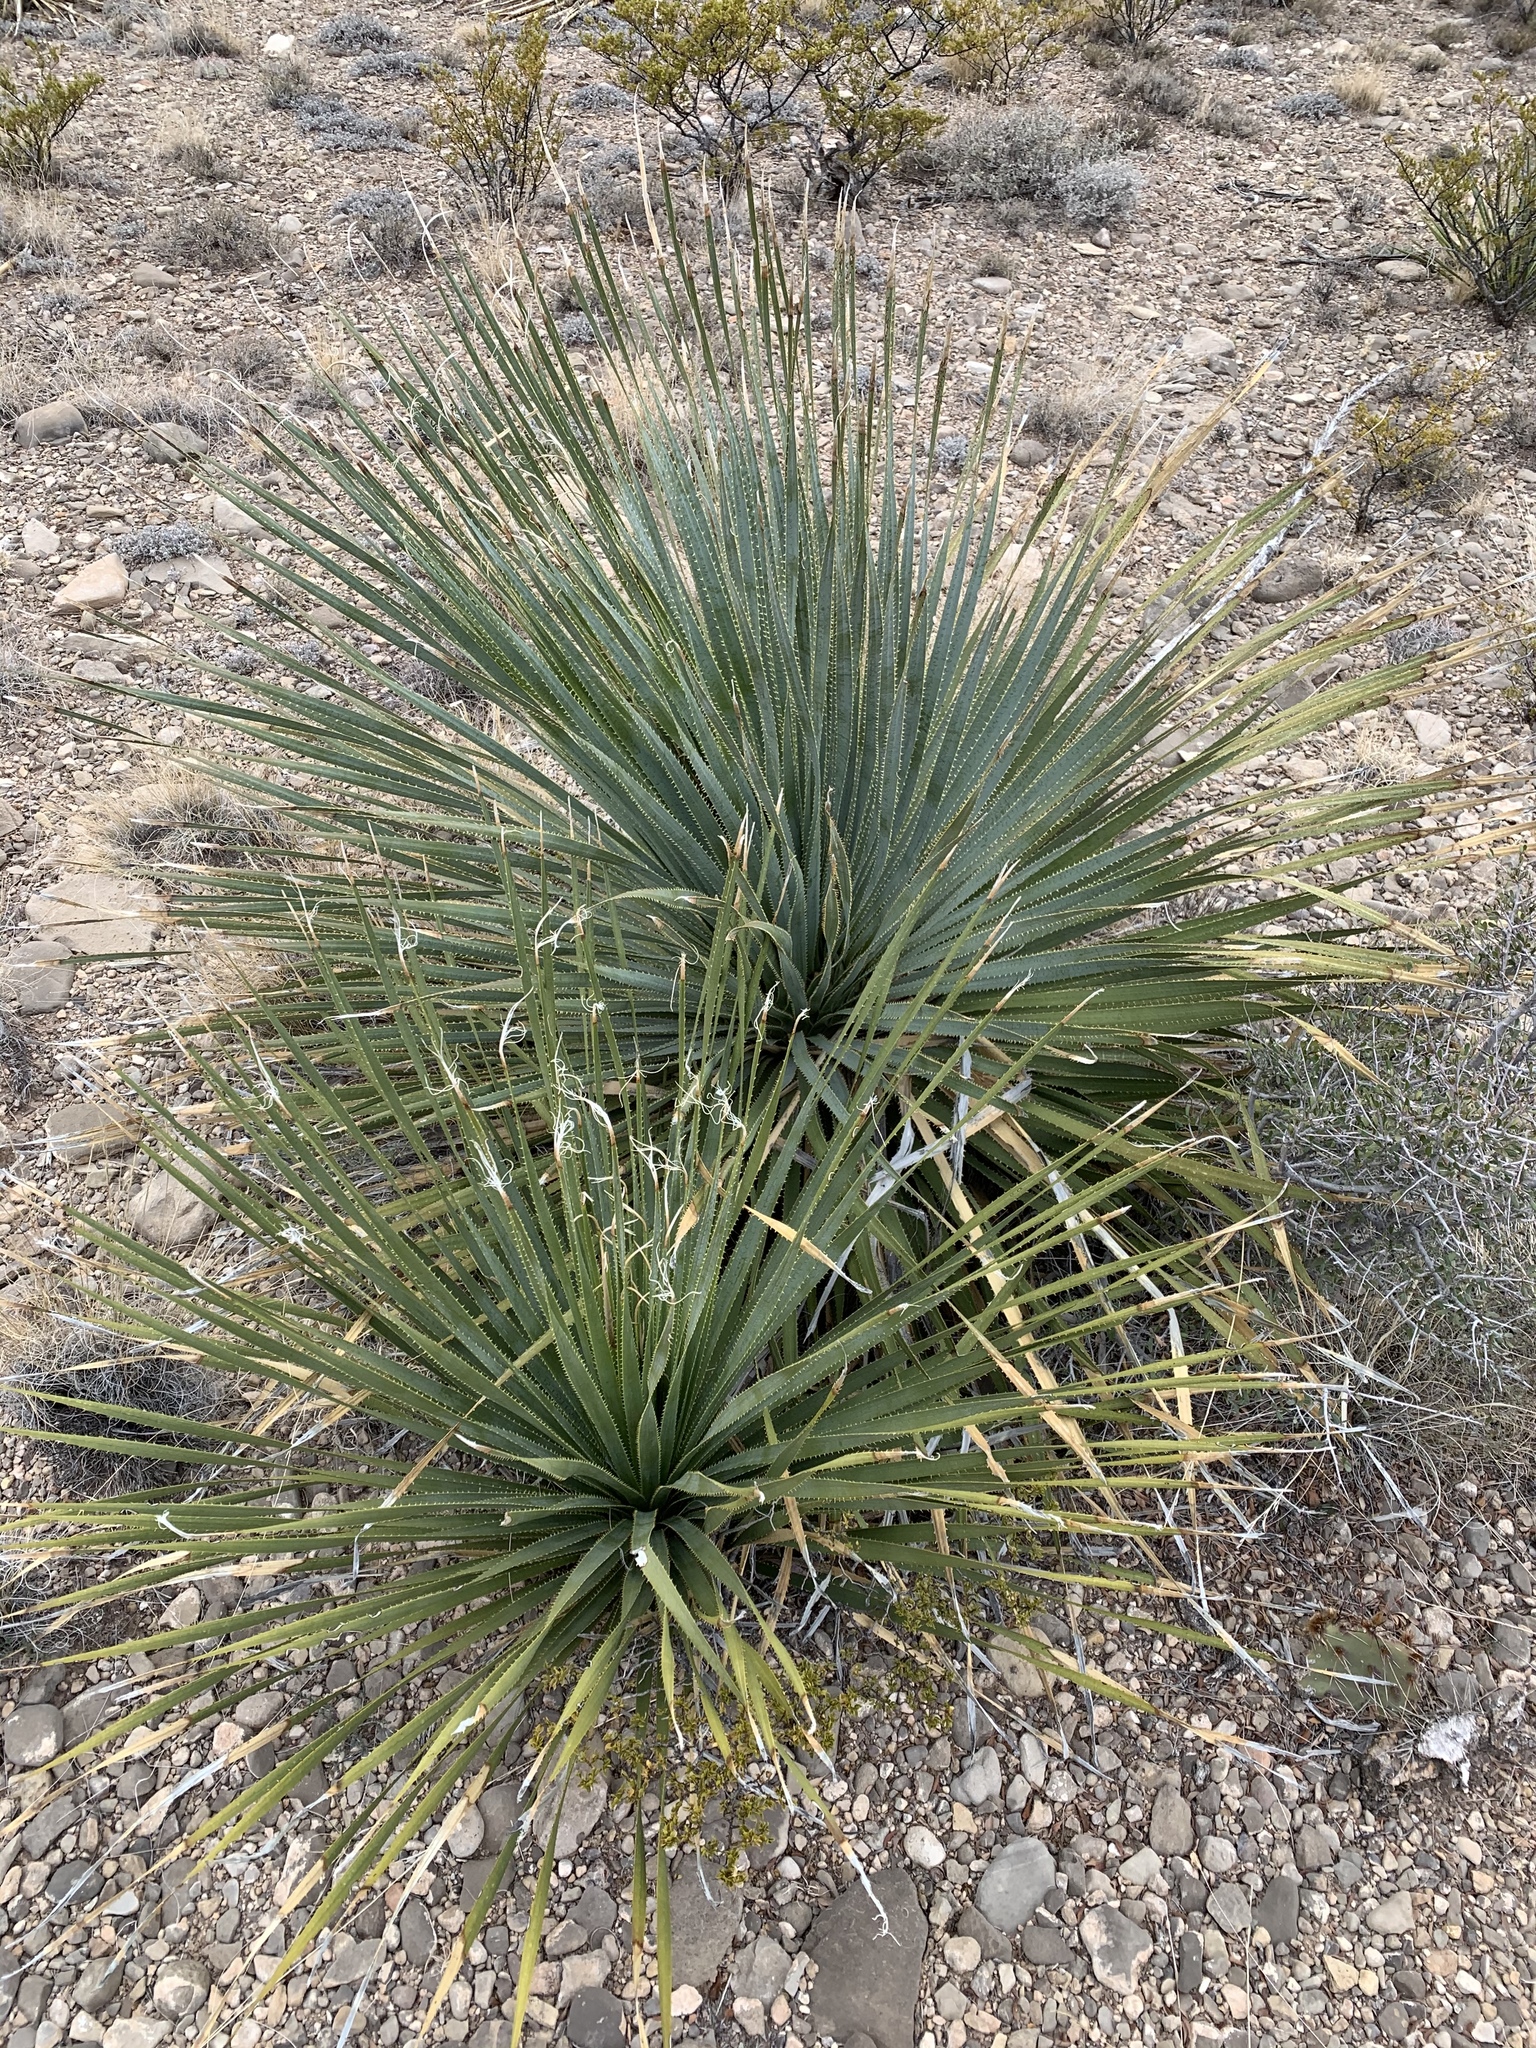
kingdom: Plantae
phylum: Tracheophyta
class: Liliopsida
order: Asparagales
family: Asparagaceae
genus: Dasylirion
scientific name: Dasylirion wheeleri
